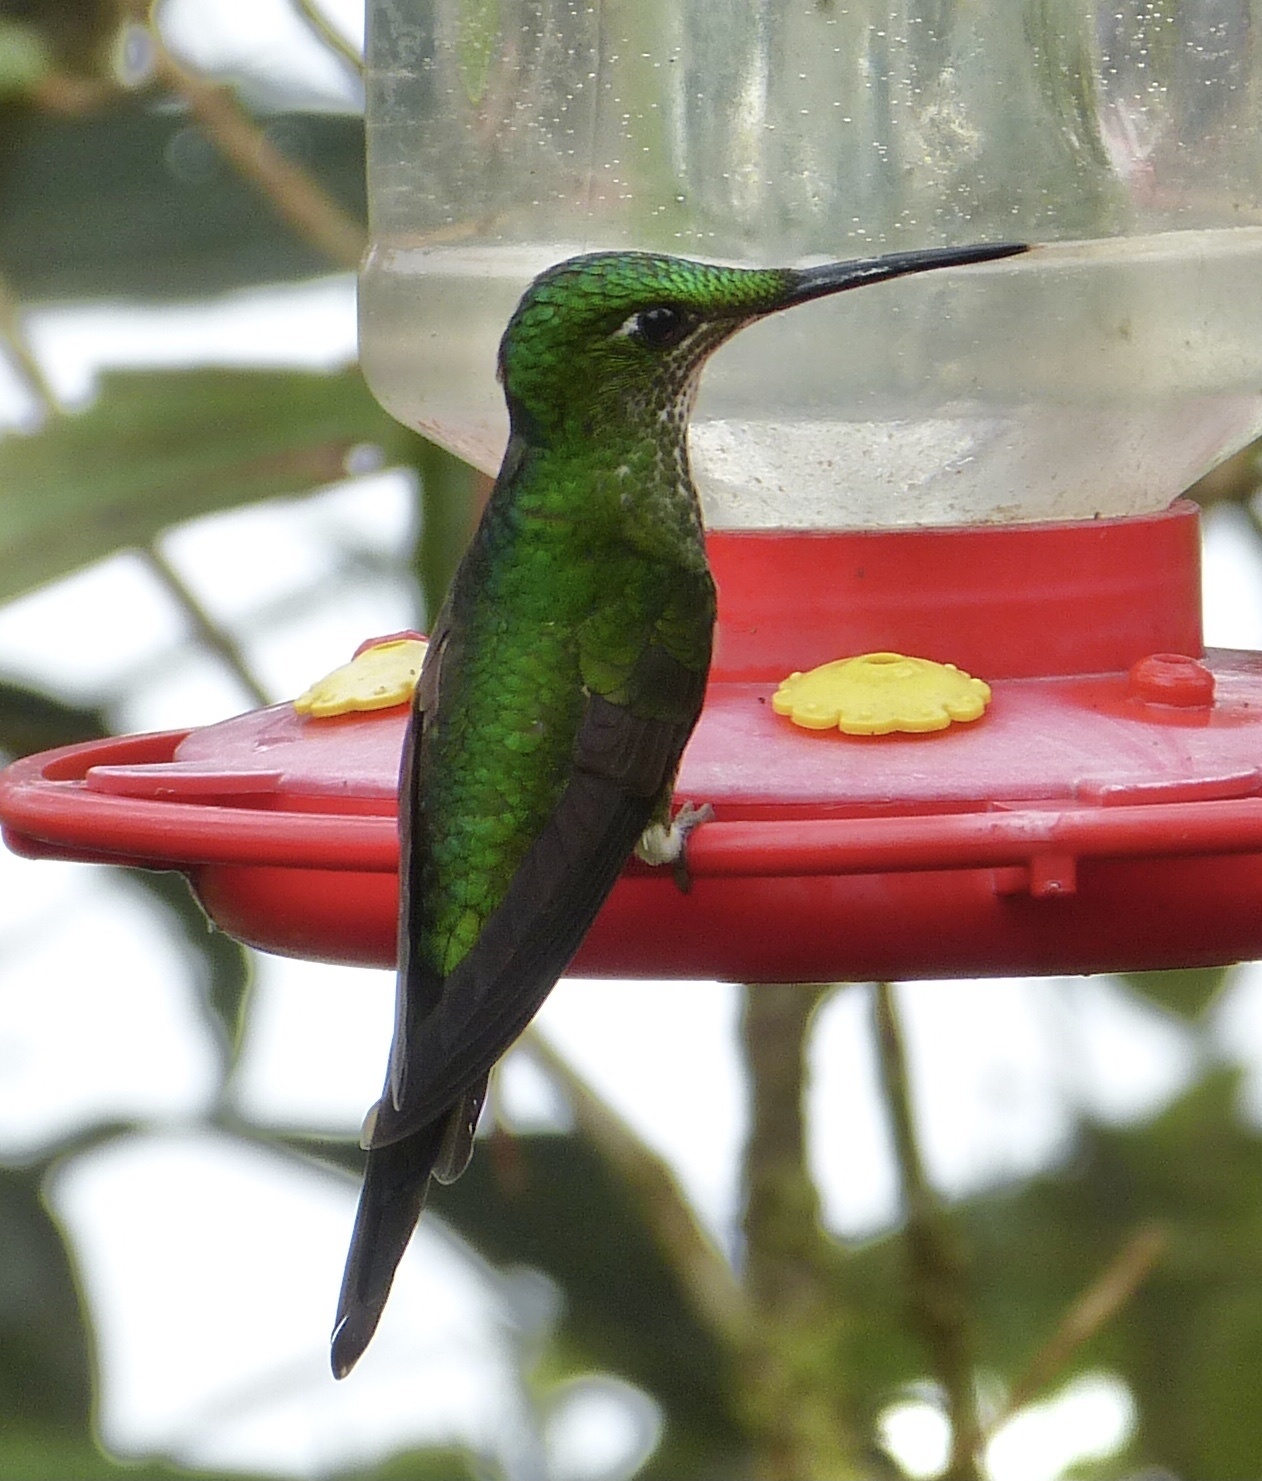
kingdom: Animalia
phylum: Chordata
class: Aves
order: Apodiformes
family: Trochilidae
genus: Heliodoxa
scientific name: Heliodoxa jacula
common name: Green-crowned brilliant
